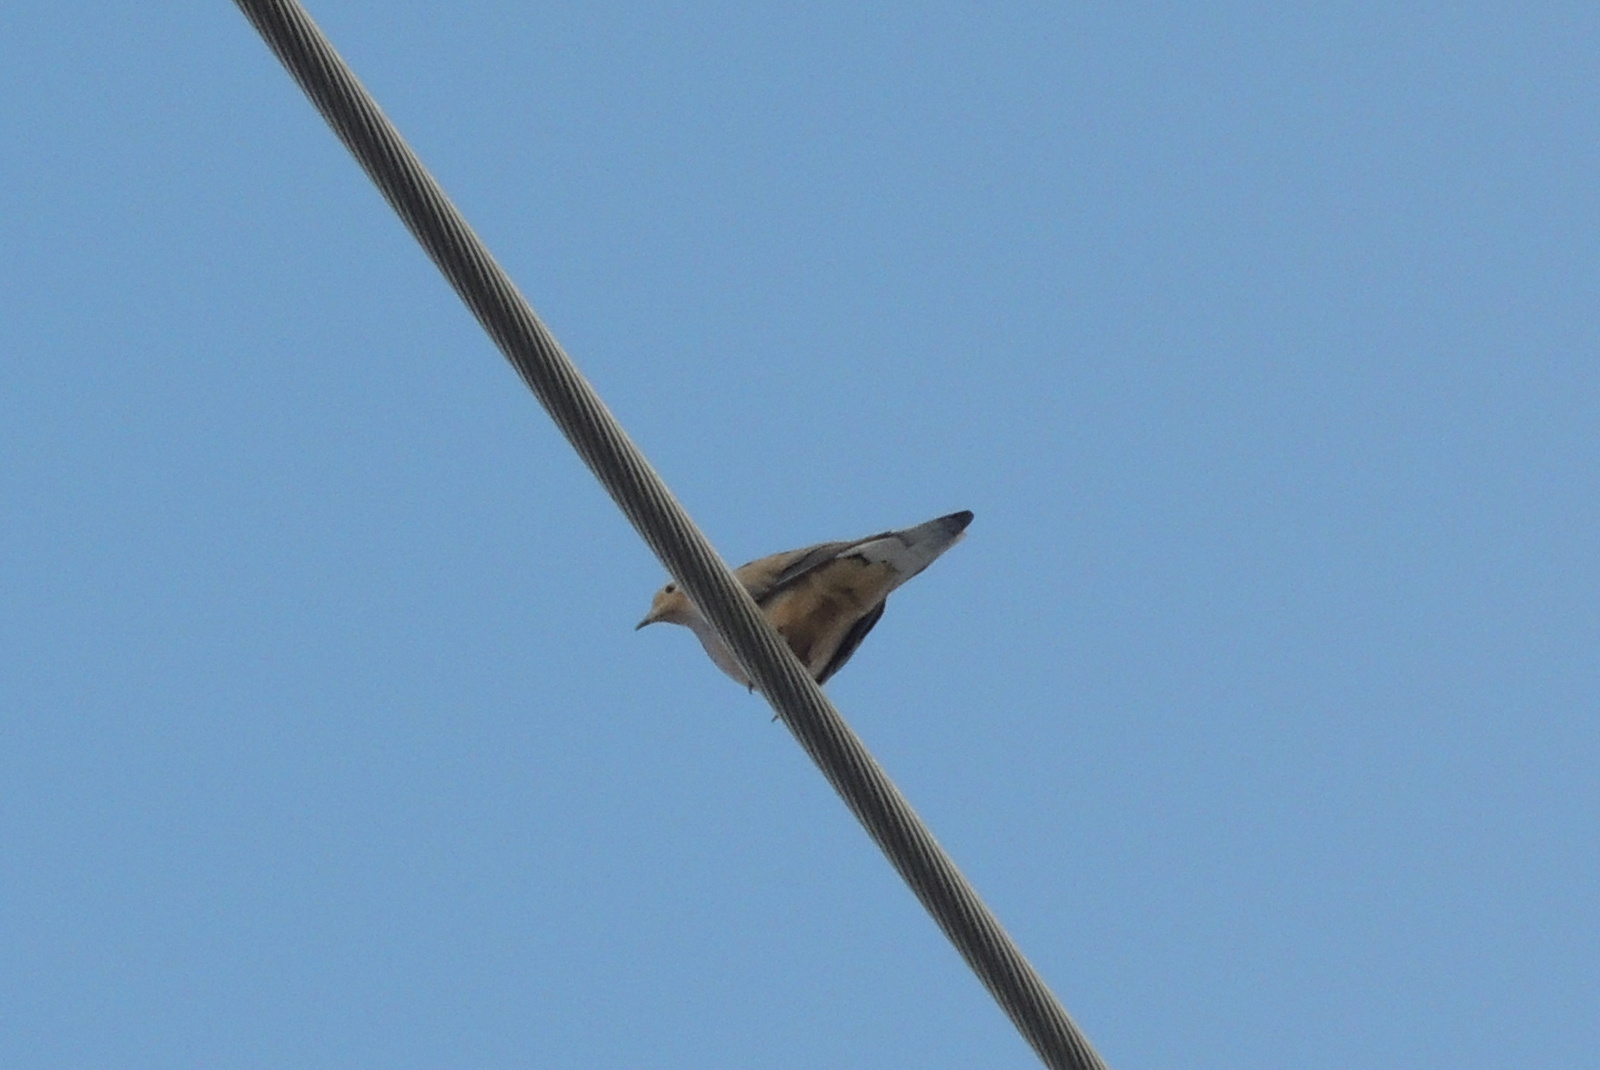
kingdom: Animalia
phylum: Chordata
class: Aves
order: Columbiformes
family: Columbidae
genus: Zenaida
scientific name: Zenaida macroura
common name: Mourning dove
